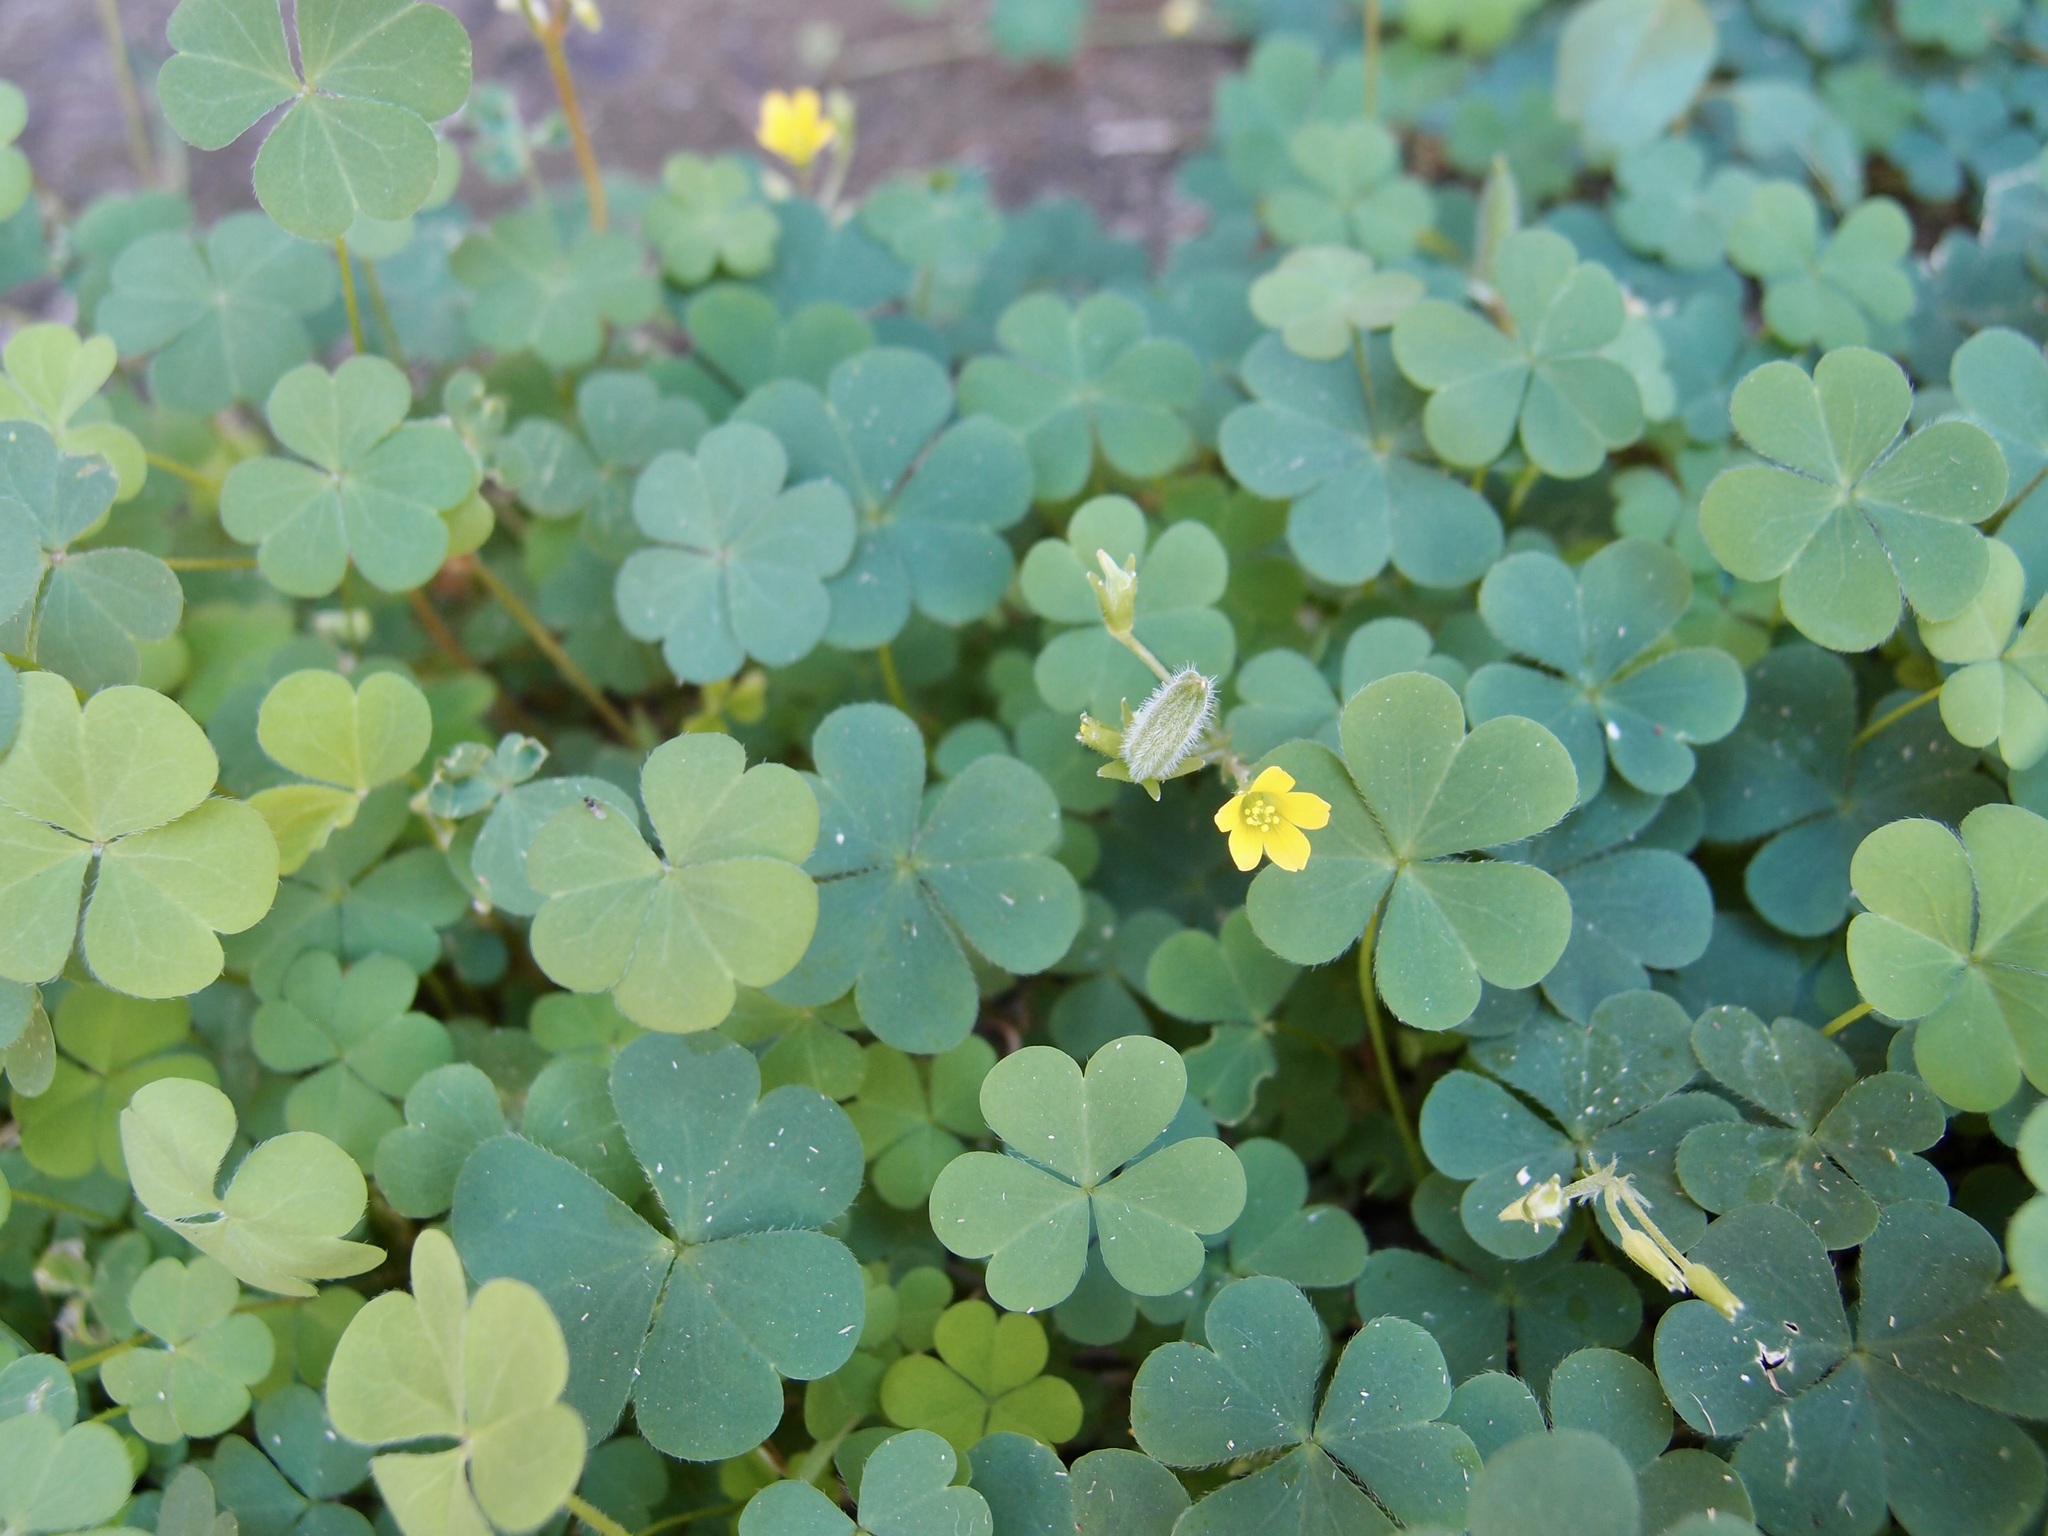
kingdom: Plantae
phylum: Tracheophyta
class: Magnoliopsida
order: Oxalidales
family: Oxalidaceae
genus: Oxalis
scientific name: Oxalis corniculata
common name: Procumbent yellow-sorrel
